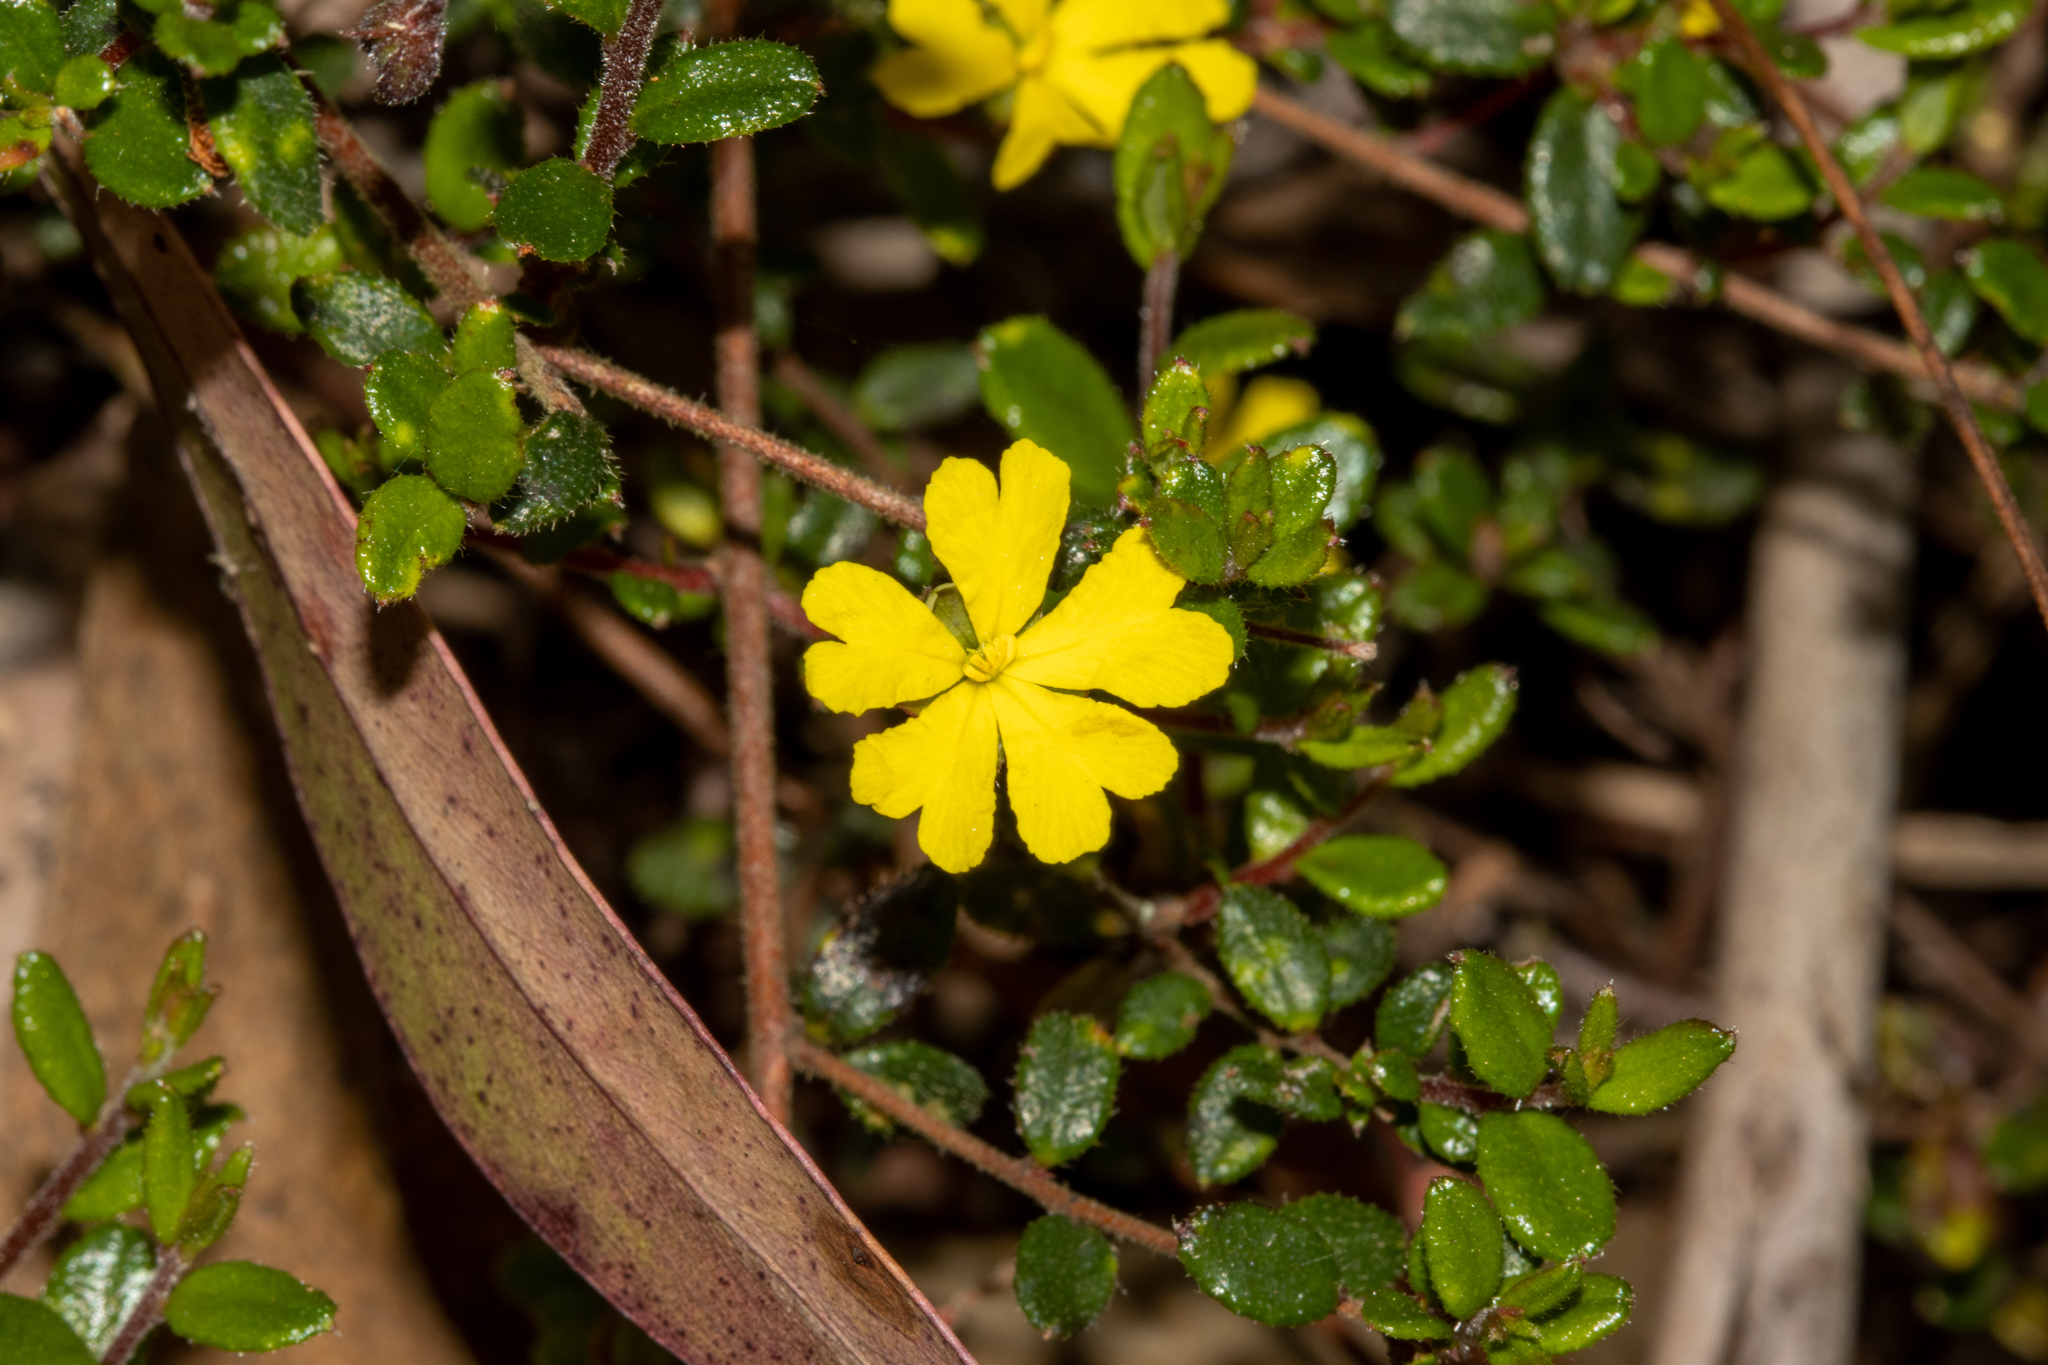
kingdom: Plantae
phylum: Tracheophyta
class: Magnoliopsida
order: Dilleniales
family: Dilleniaceae
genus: Hibbertia
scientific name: Hibbertia decumbens
